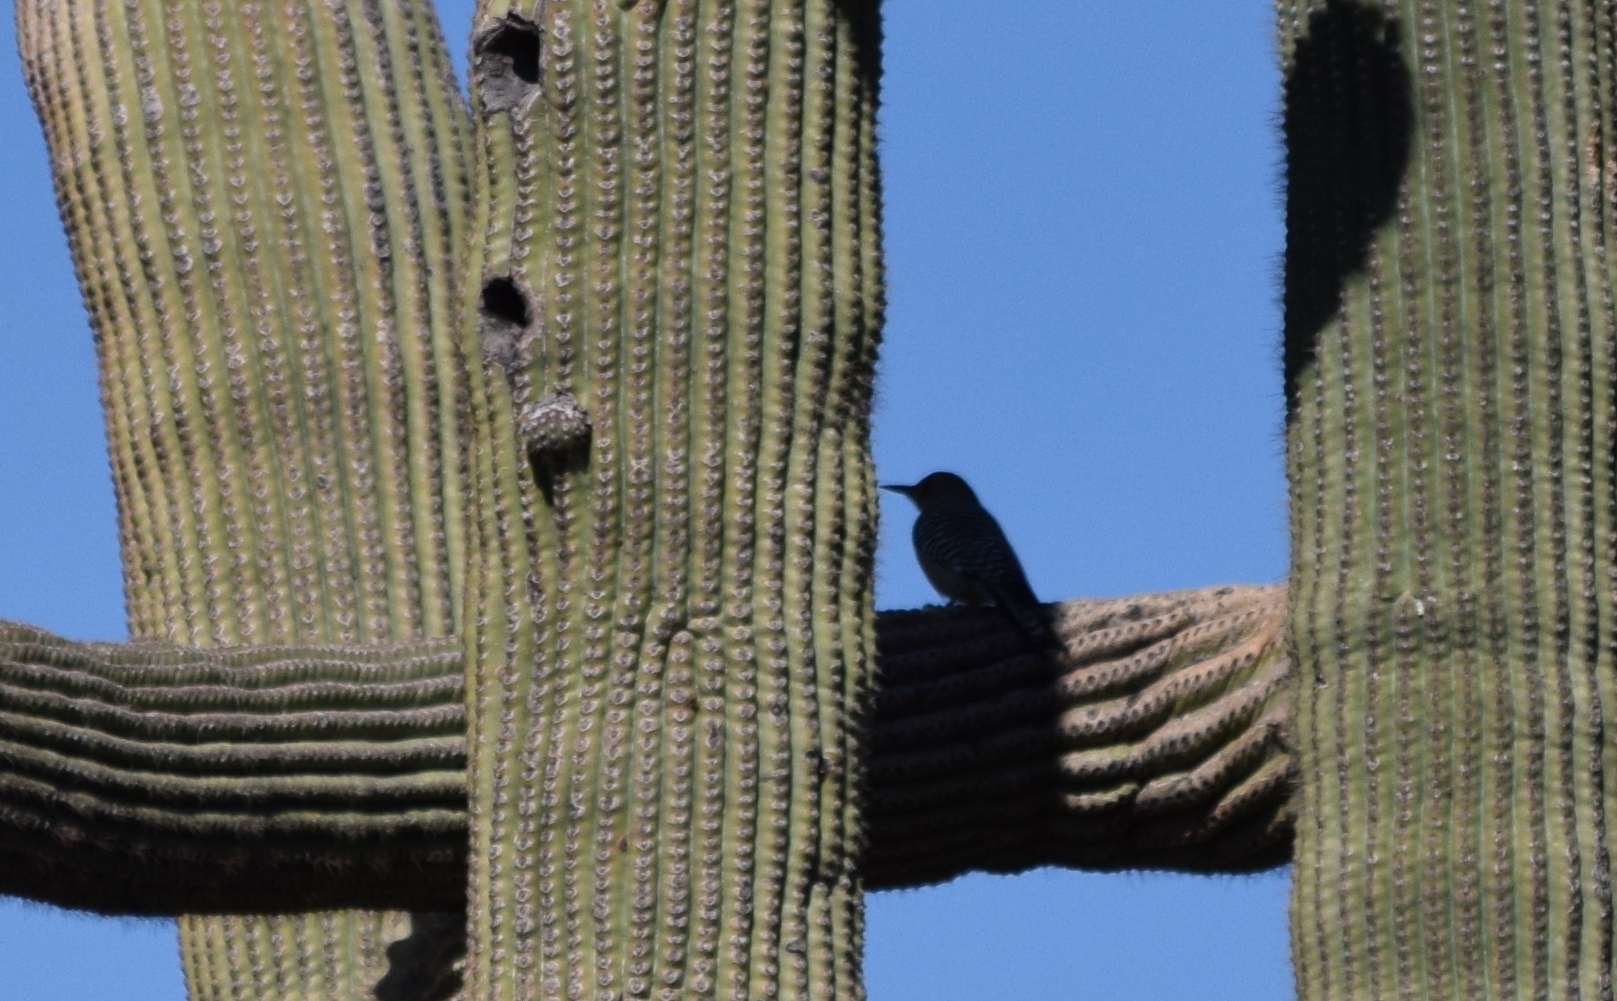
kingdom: Animalia
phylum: Chordata
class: Aves
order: Piciformes
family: Picidae
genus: Melanerpes
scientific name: Melanerpes uropygialis
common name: Gila woodpecker
